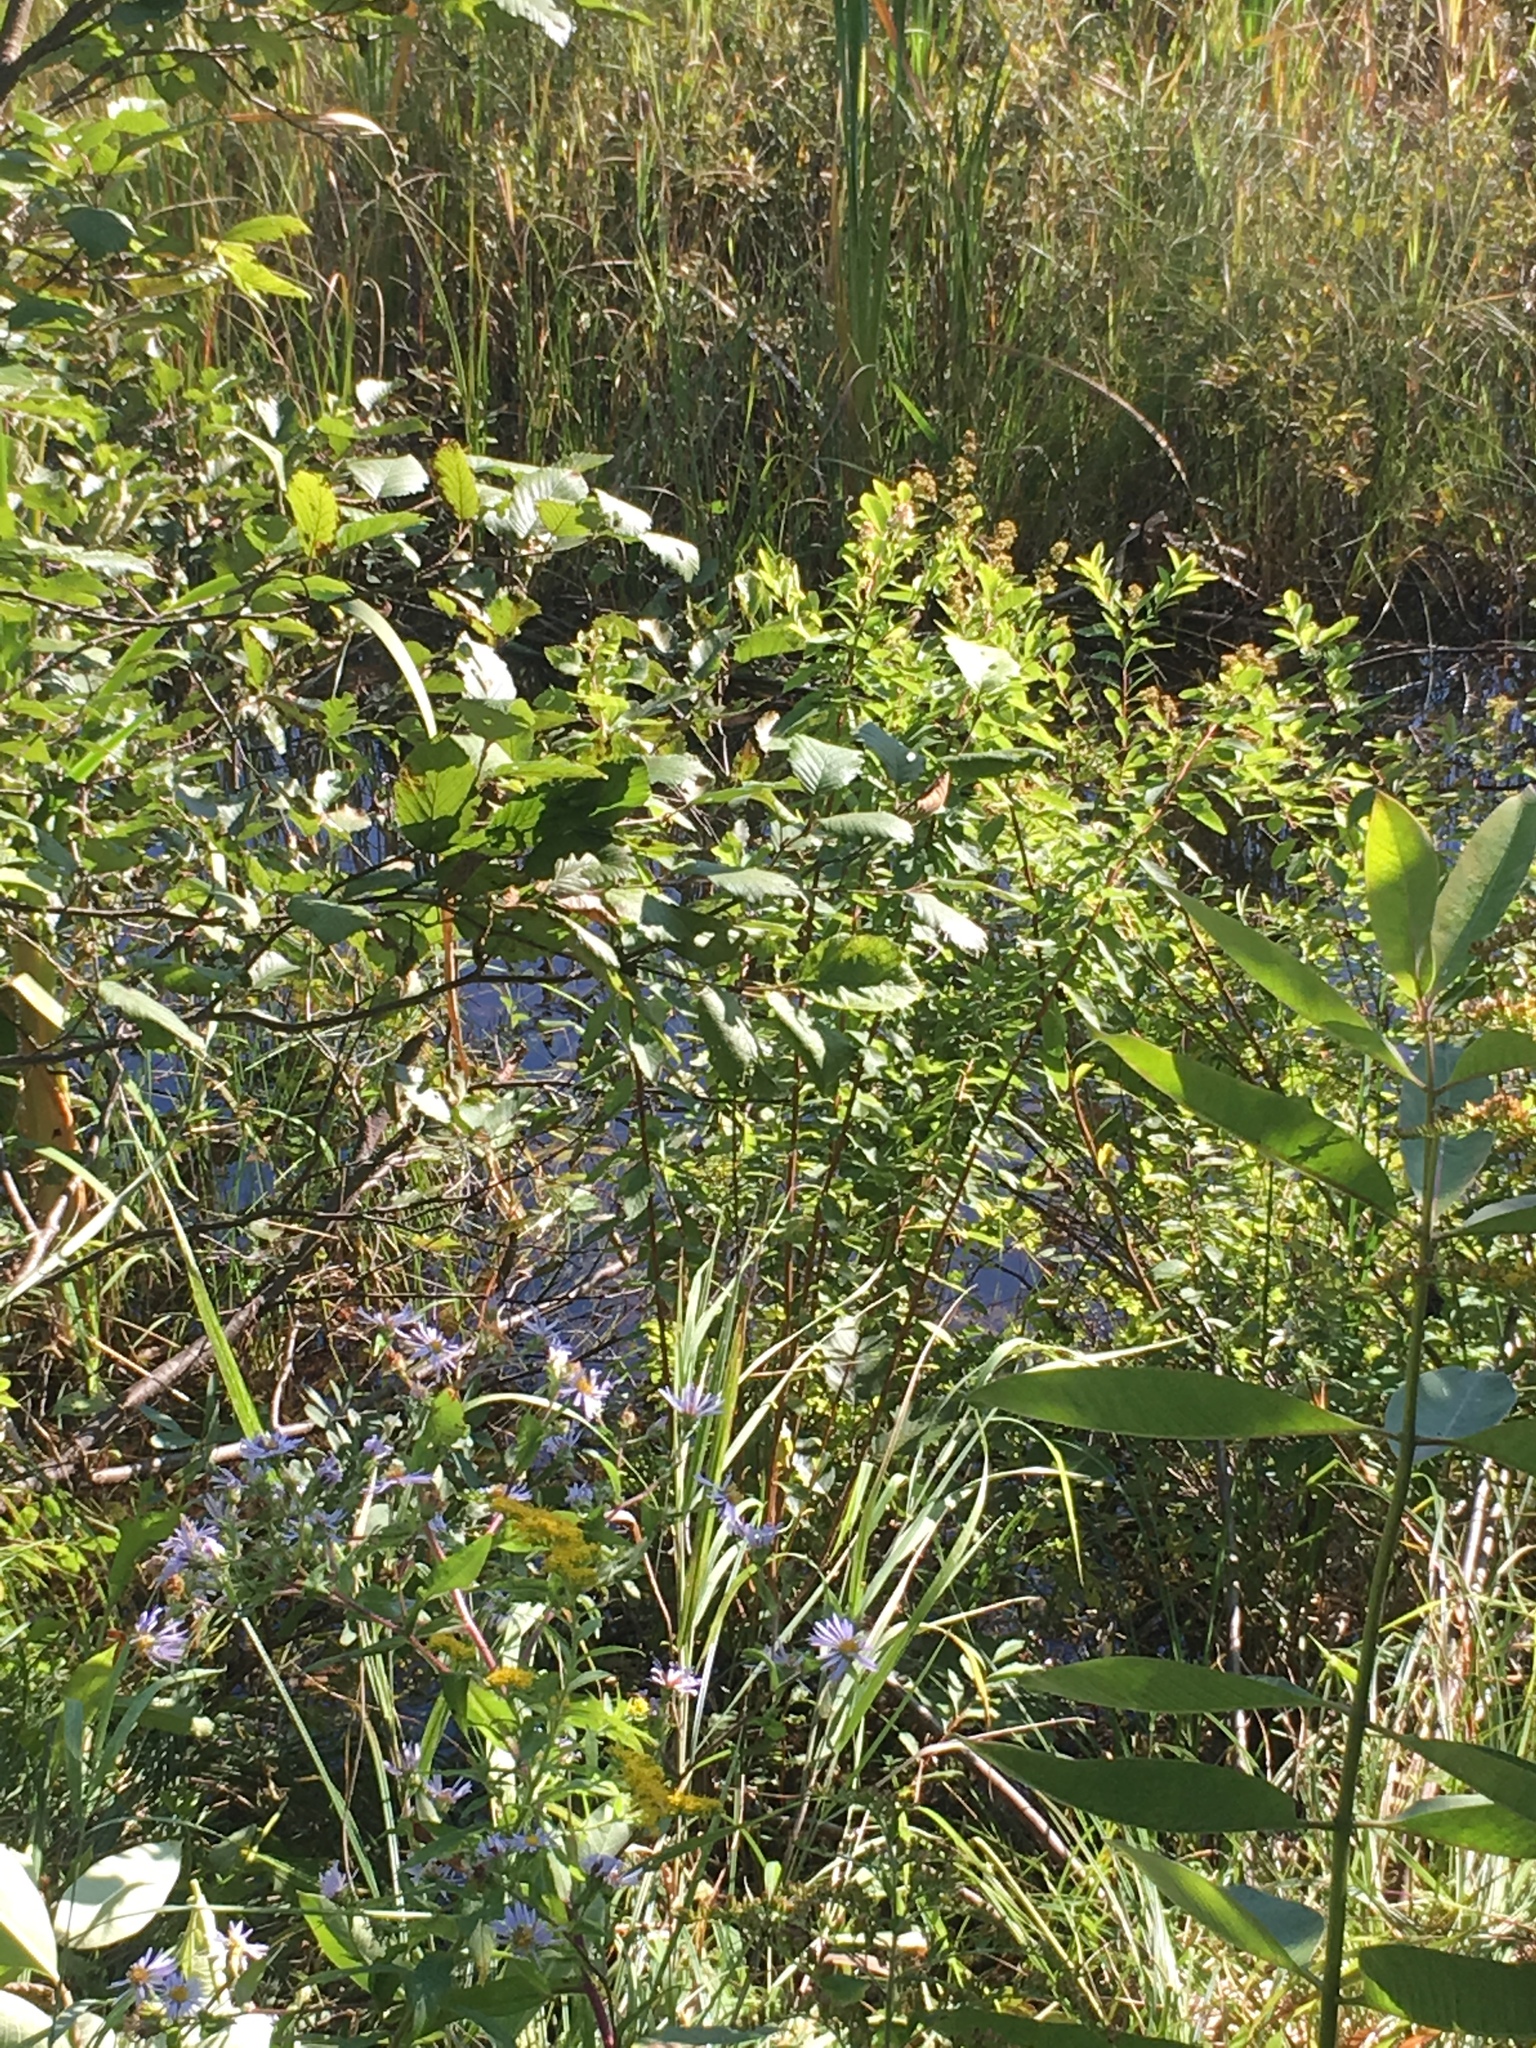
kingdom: Plantae
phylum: Tracheophyta
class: Magnoliopsida
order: Rosales
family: Rosaceae
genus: Spiraea
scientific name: Spiraea alba
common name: Pale bridewort
